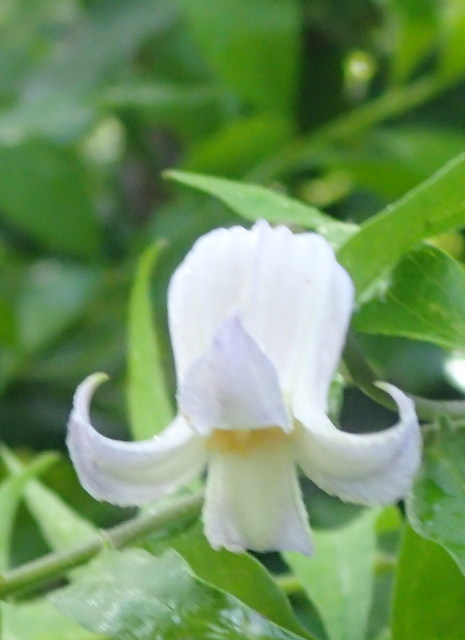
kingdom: Plantae
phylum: Tracheophyta
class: Magnoliopsida
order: Ranunculales
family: Ranunculaceae
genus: Clematis
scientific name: Clematis crispa
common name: Curly clematis
